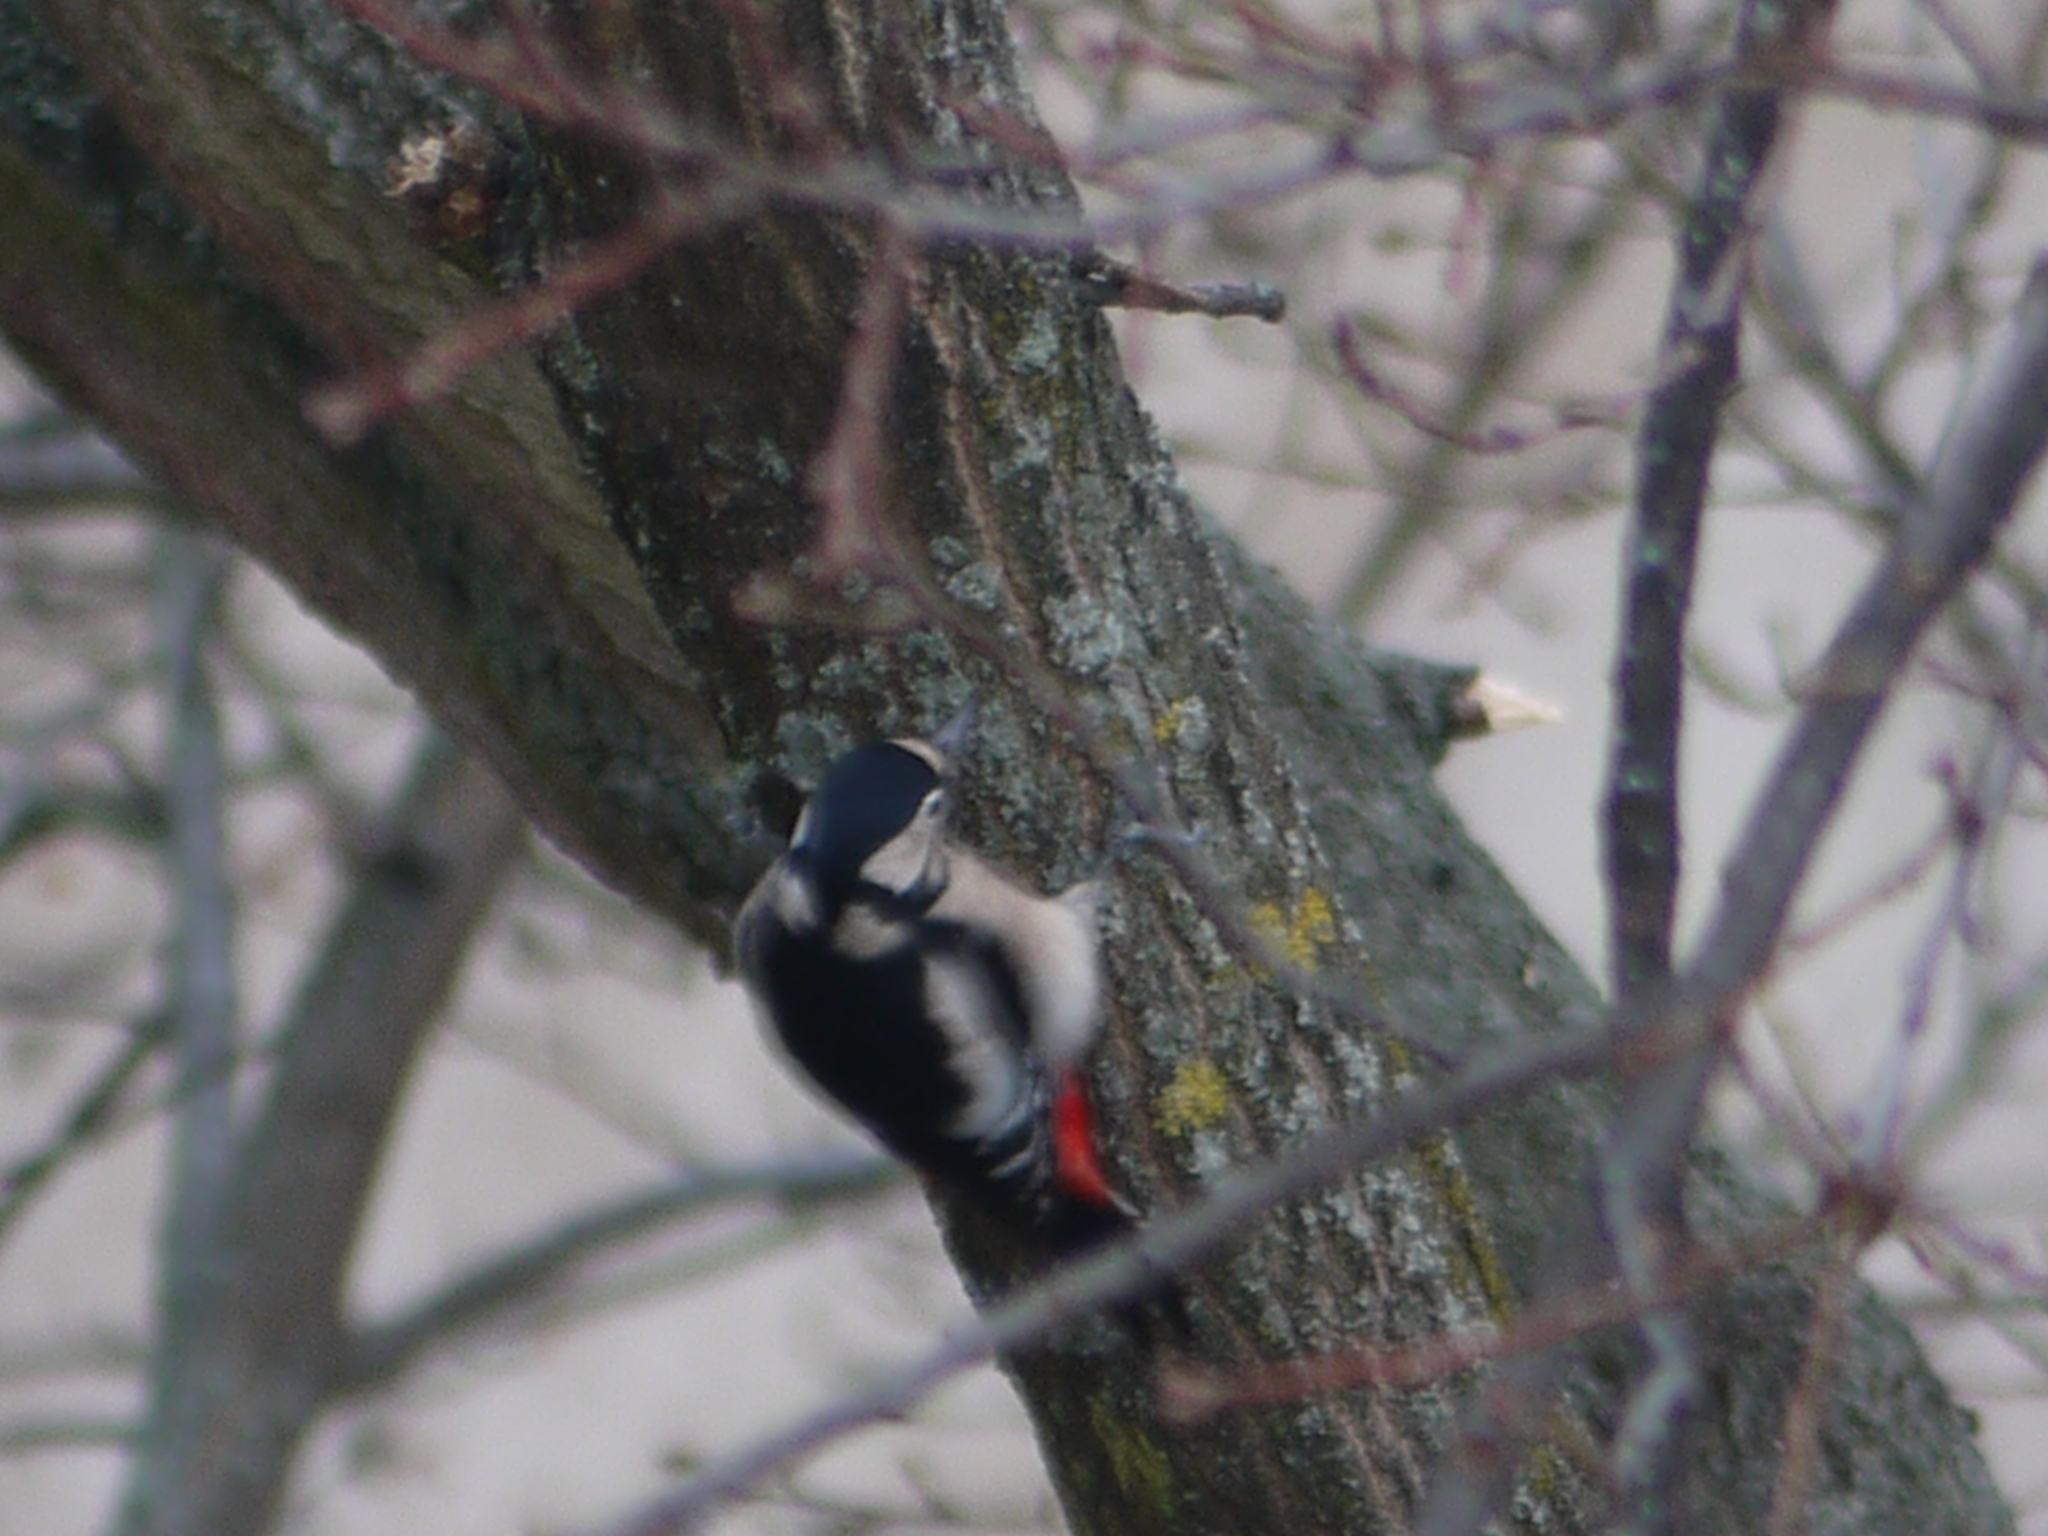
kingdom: Animalia
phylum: Chordata
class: Aves
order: Piciformes
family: Picidae
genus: Dendrocopos
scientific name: Dendrocopos major
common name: Great spotted woodpecker
